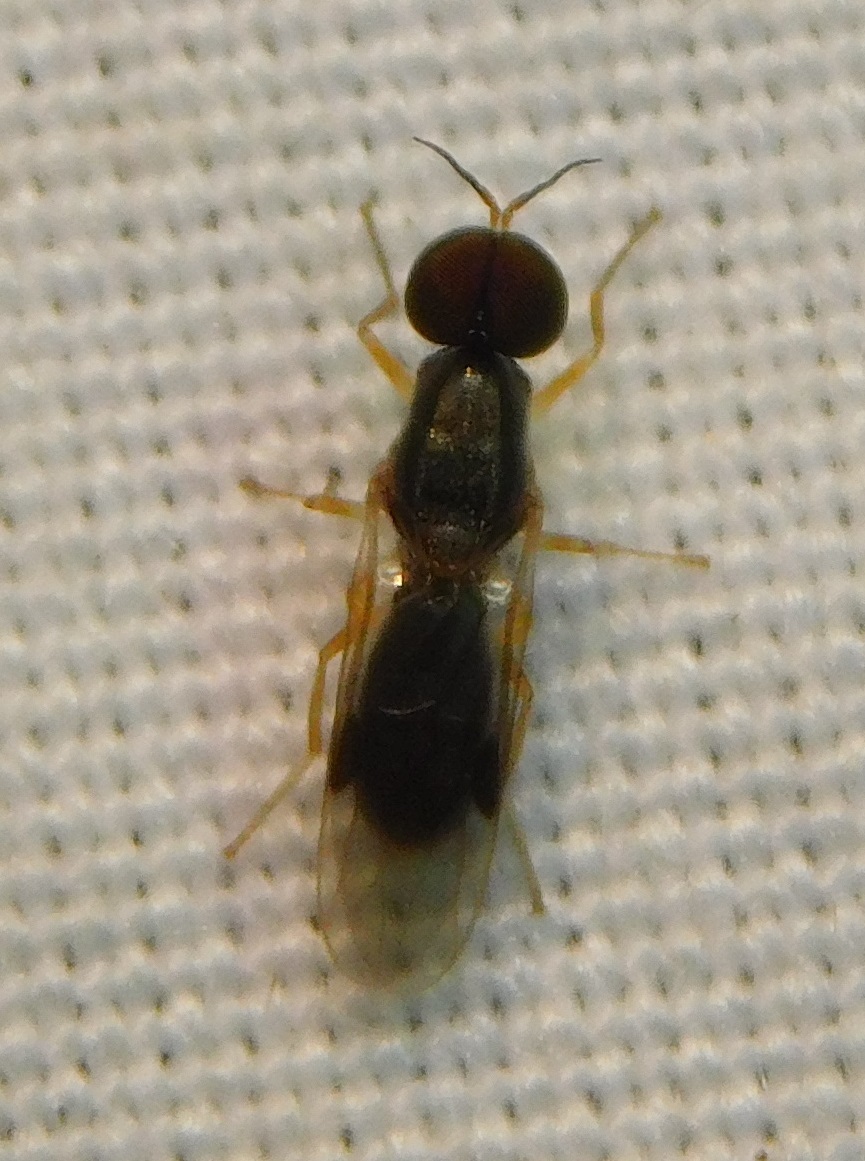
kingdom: Animalia
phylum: Arthropoda
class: Insecta
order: Diptera
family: Stratiomyidae
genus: Tinda
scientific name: Tinda
